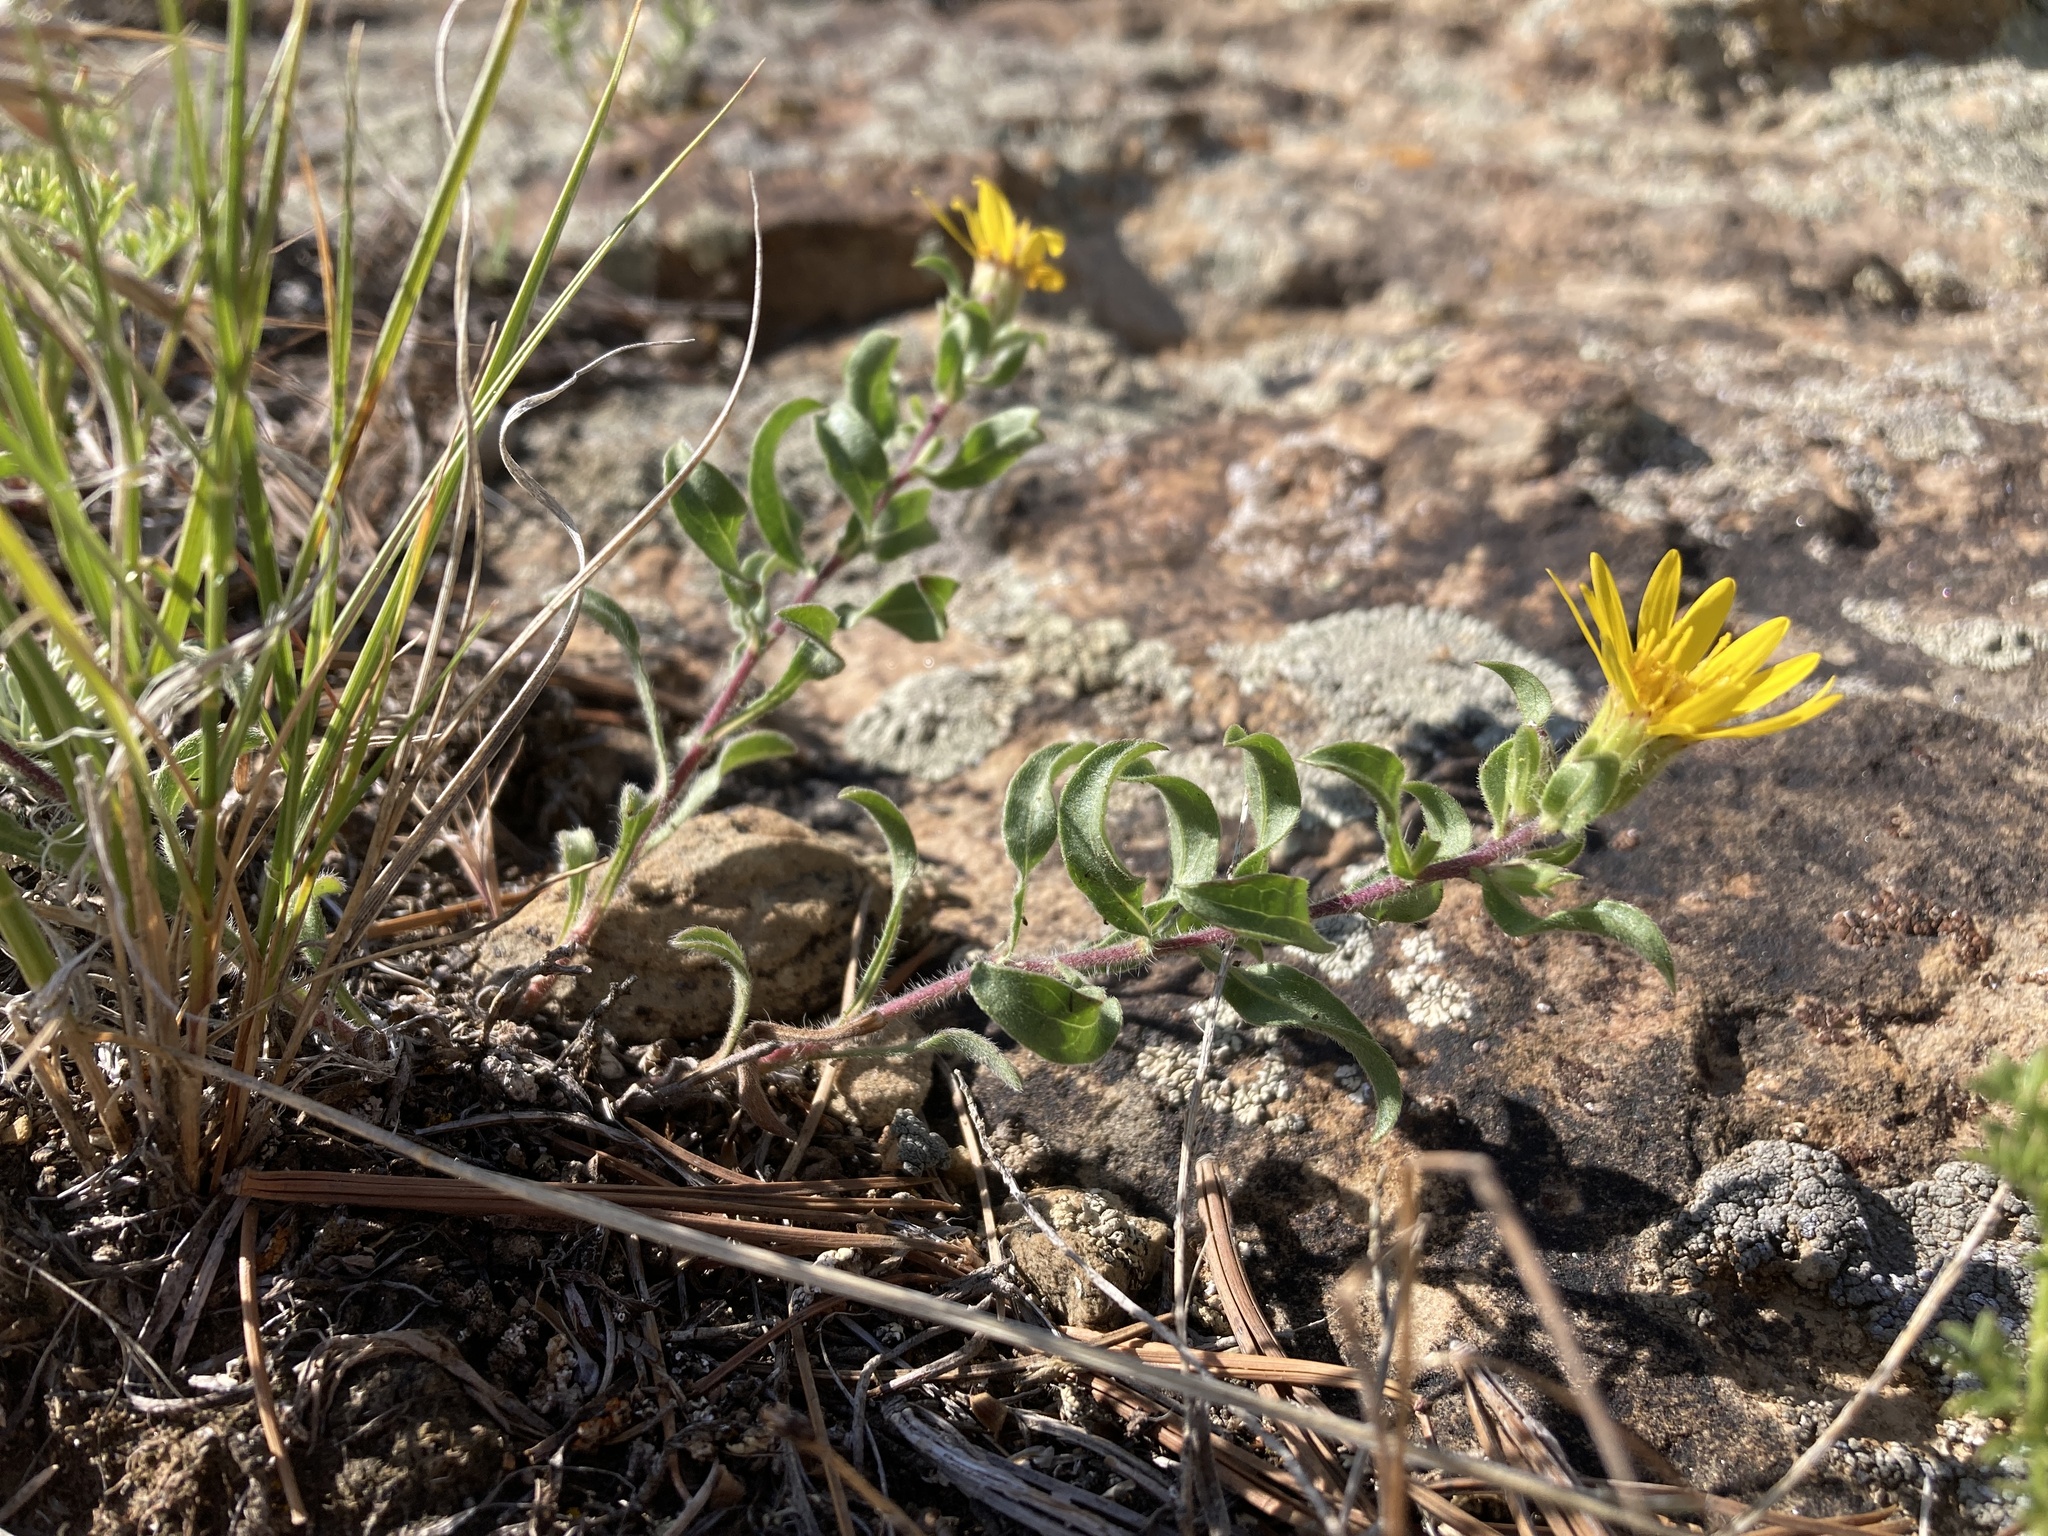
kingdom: Plantae
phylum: Tracheophyta
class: Magnoliopsida
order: Asterales
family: Asteraceae
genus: Heterotheca
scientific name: Heterotheca hispida
